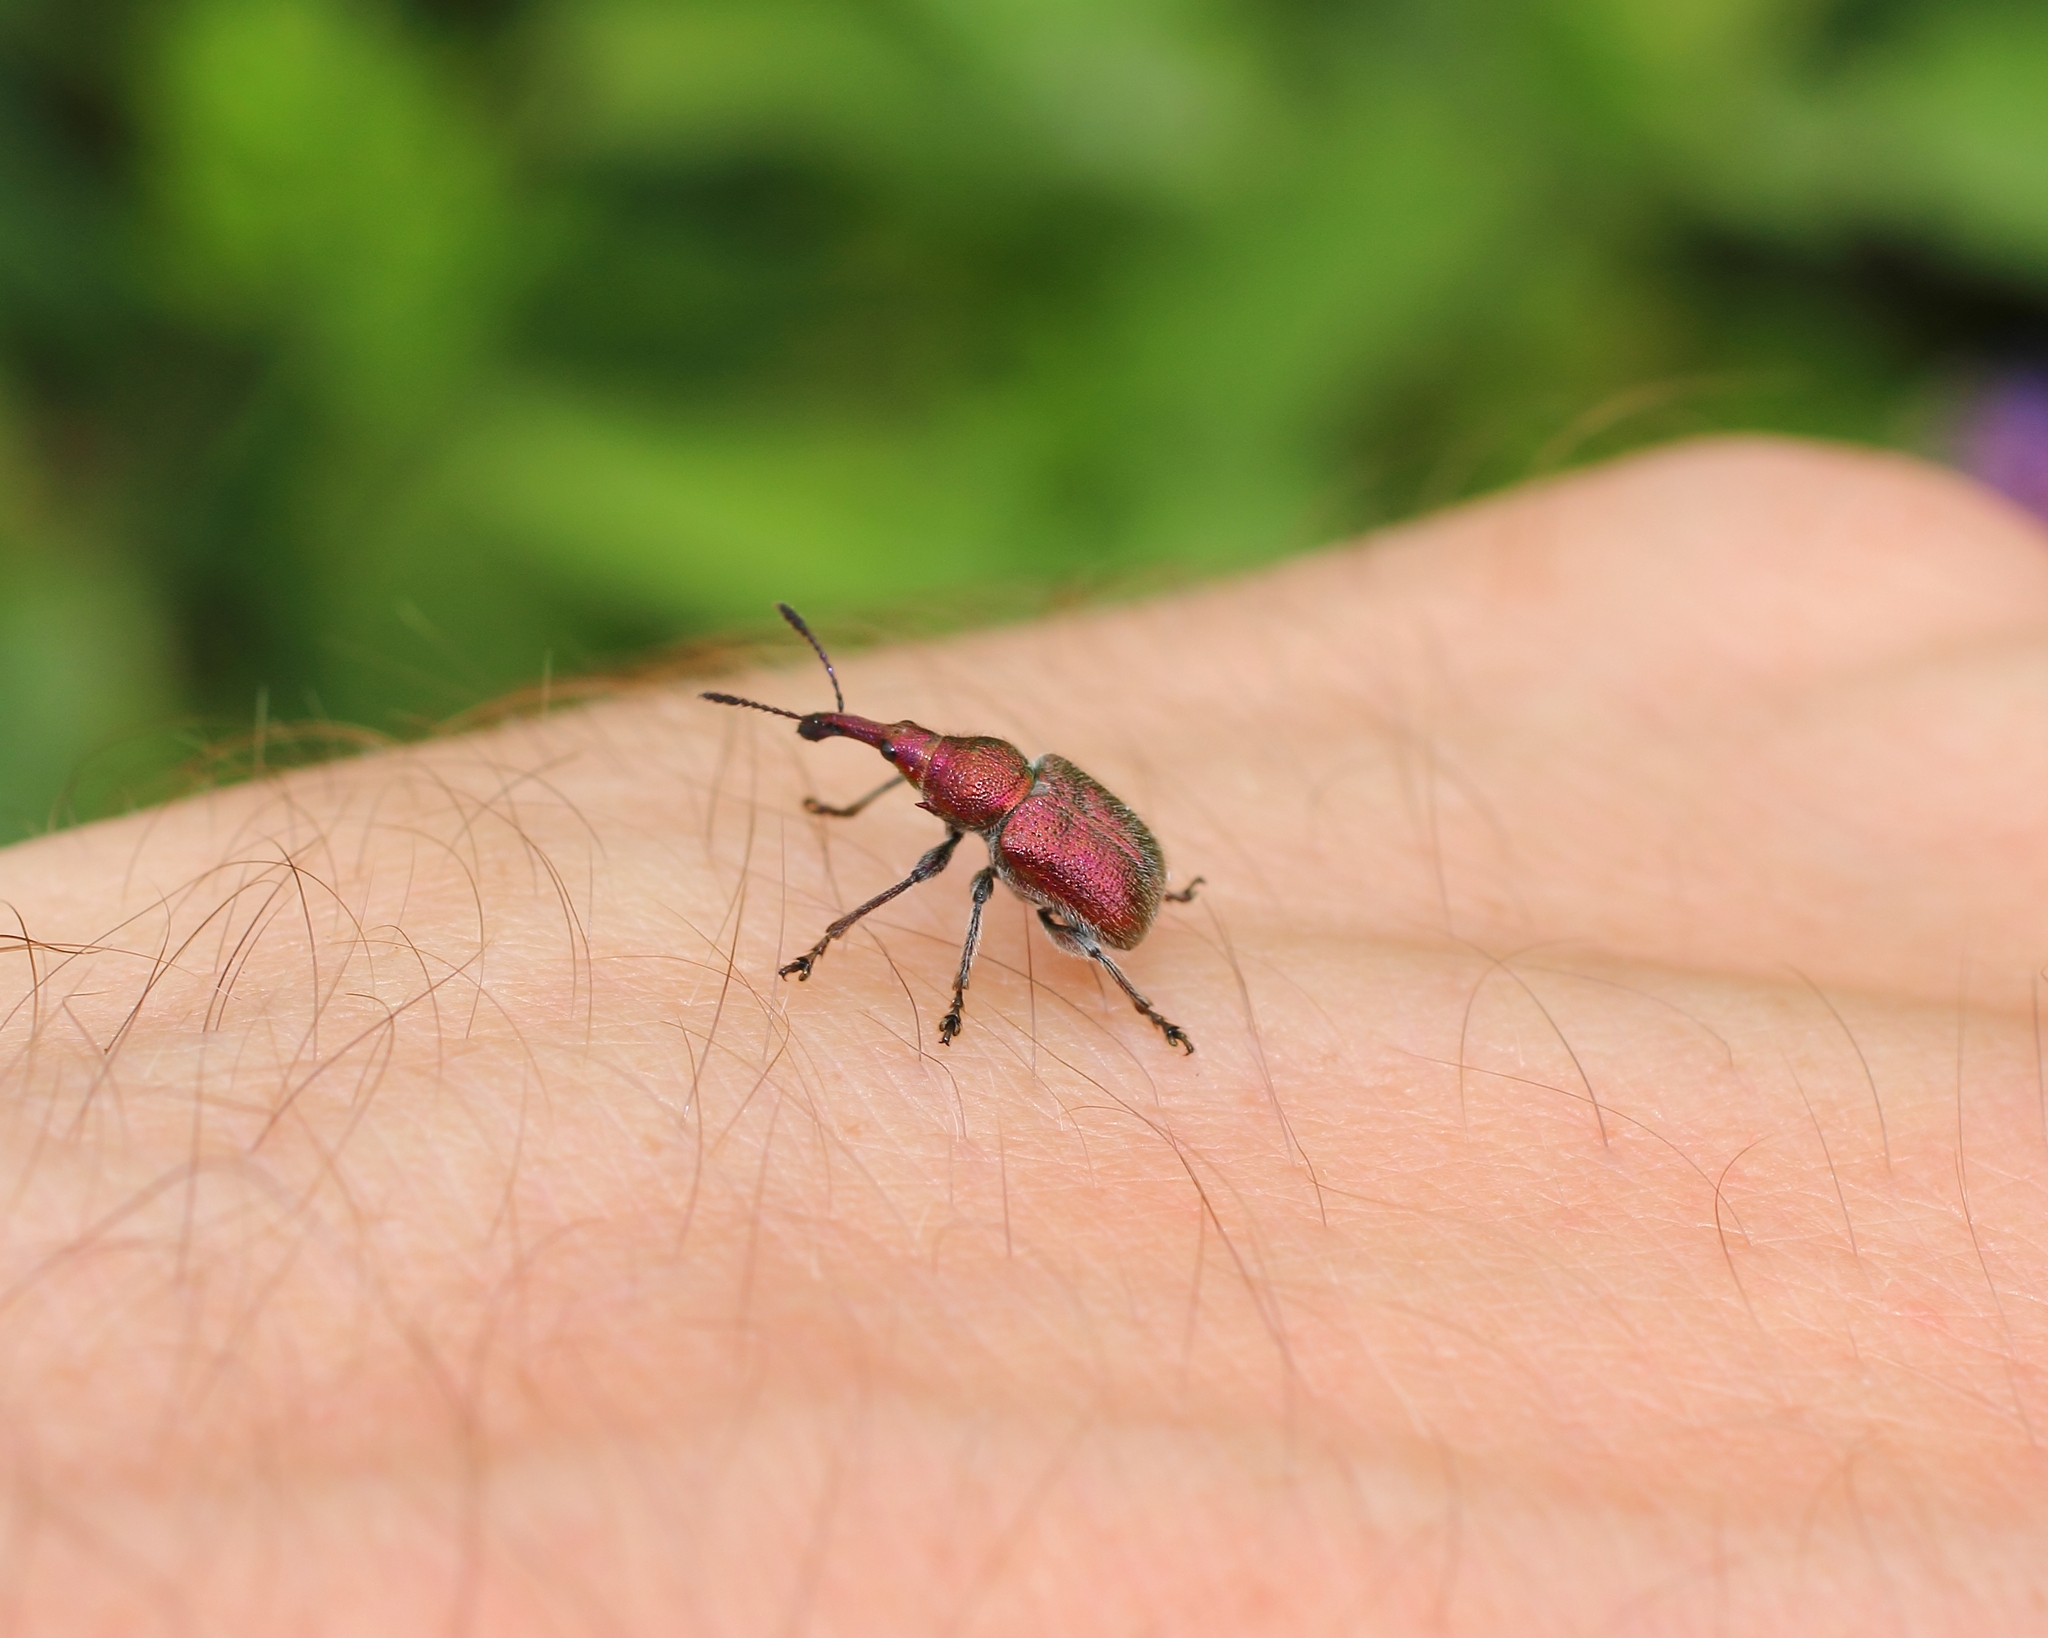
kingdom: Animalia
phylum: Arthropoda
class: Insecta
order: Coleoptera
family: Attelabidae
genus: Rhynchites
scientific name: Rhynchites auratus
